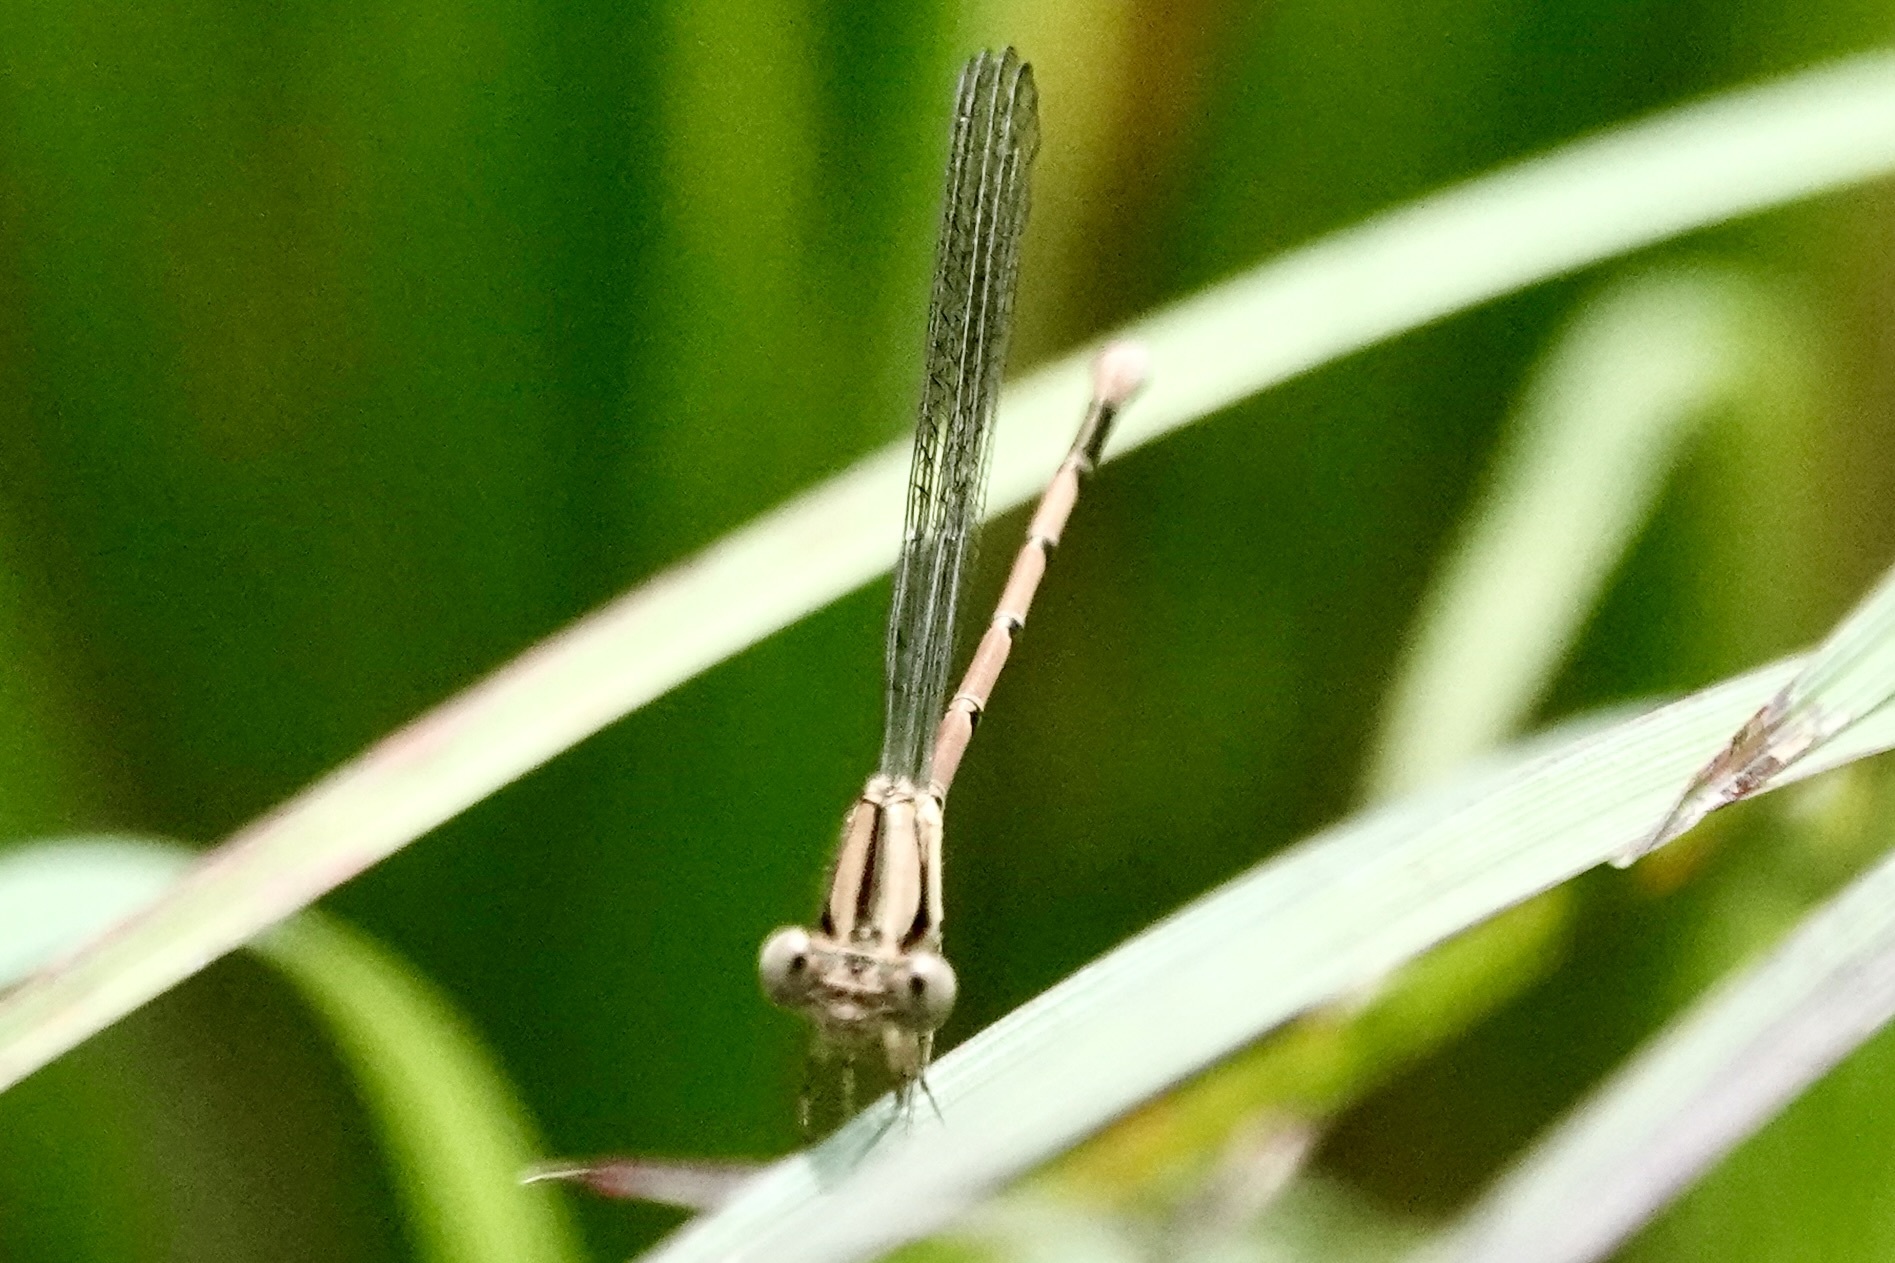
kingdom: Animalia
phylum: Arthropoda
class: Insecta
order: Odonata
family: Coenagrionidae
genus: Argia
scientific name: Argia fumipennis
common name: Variable dancer
